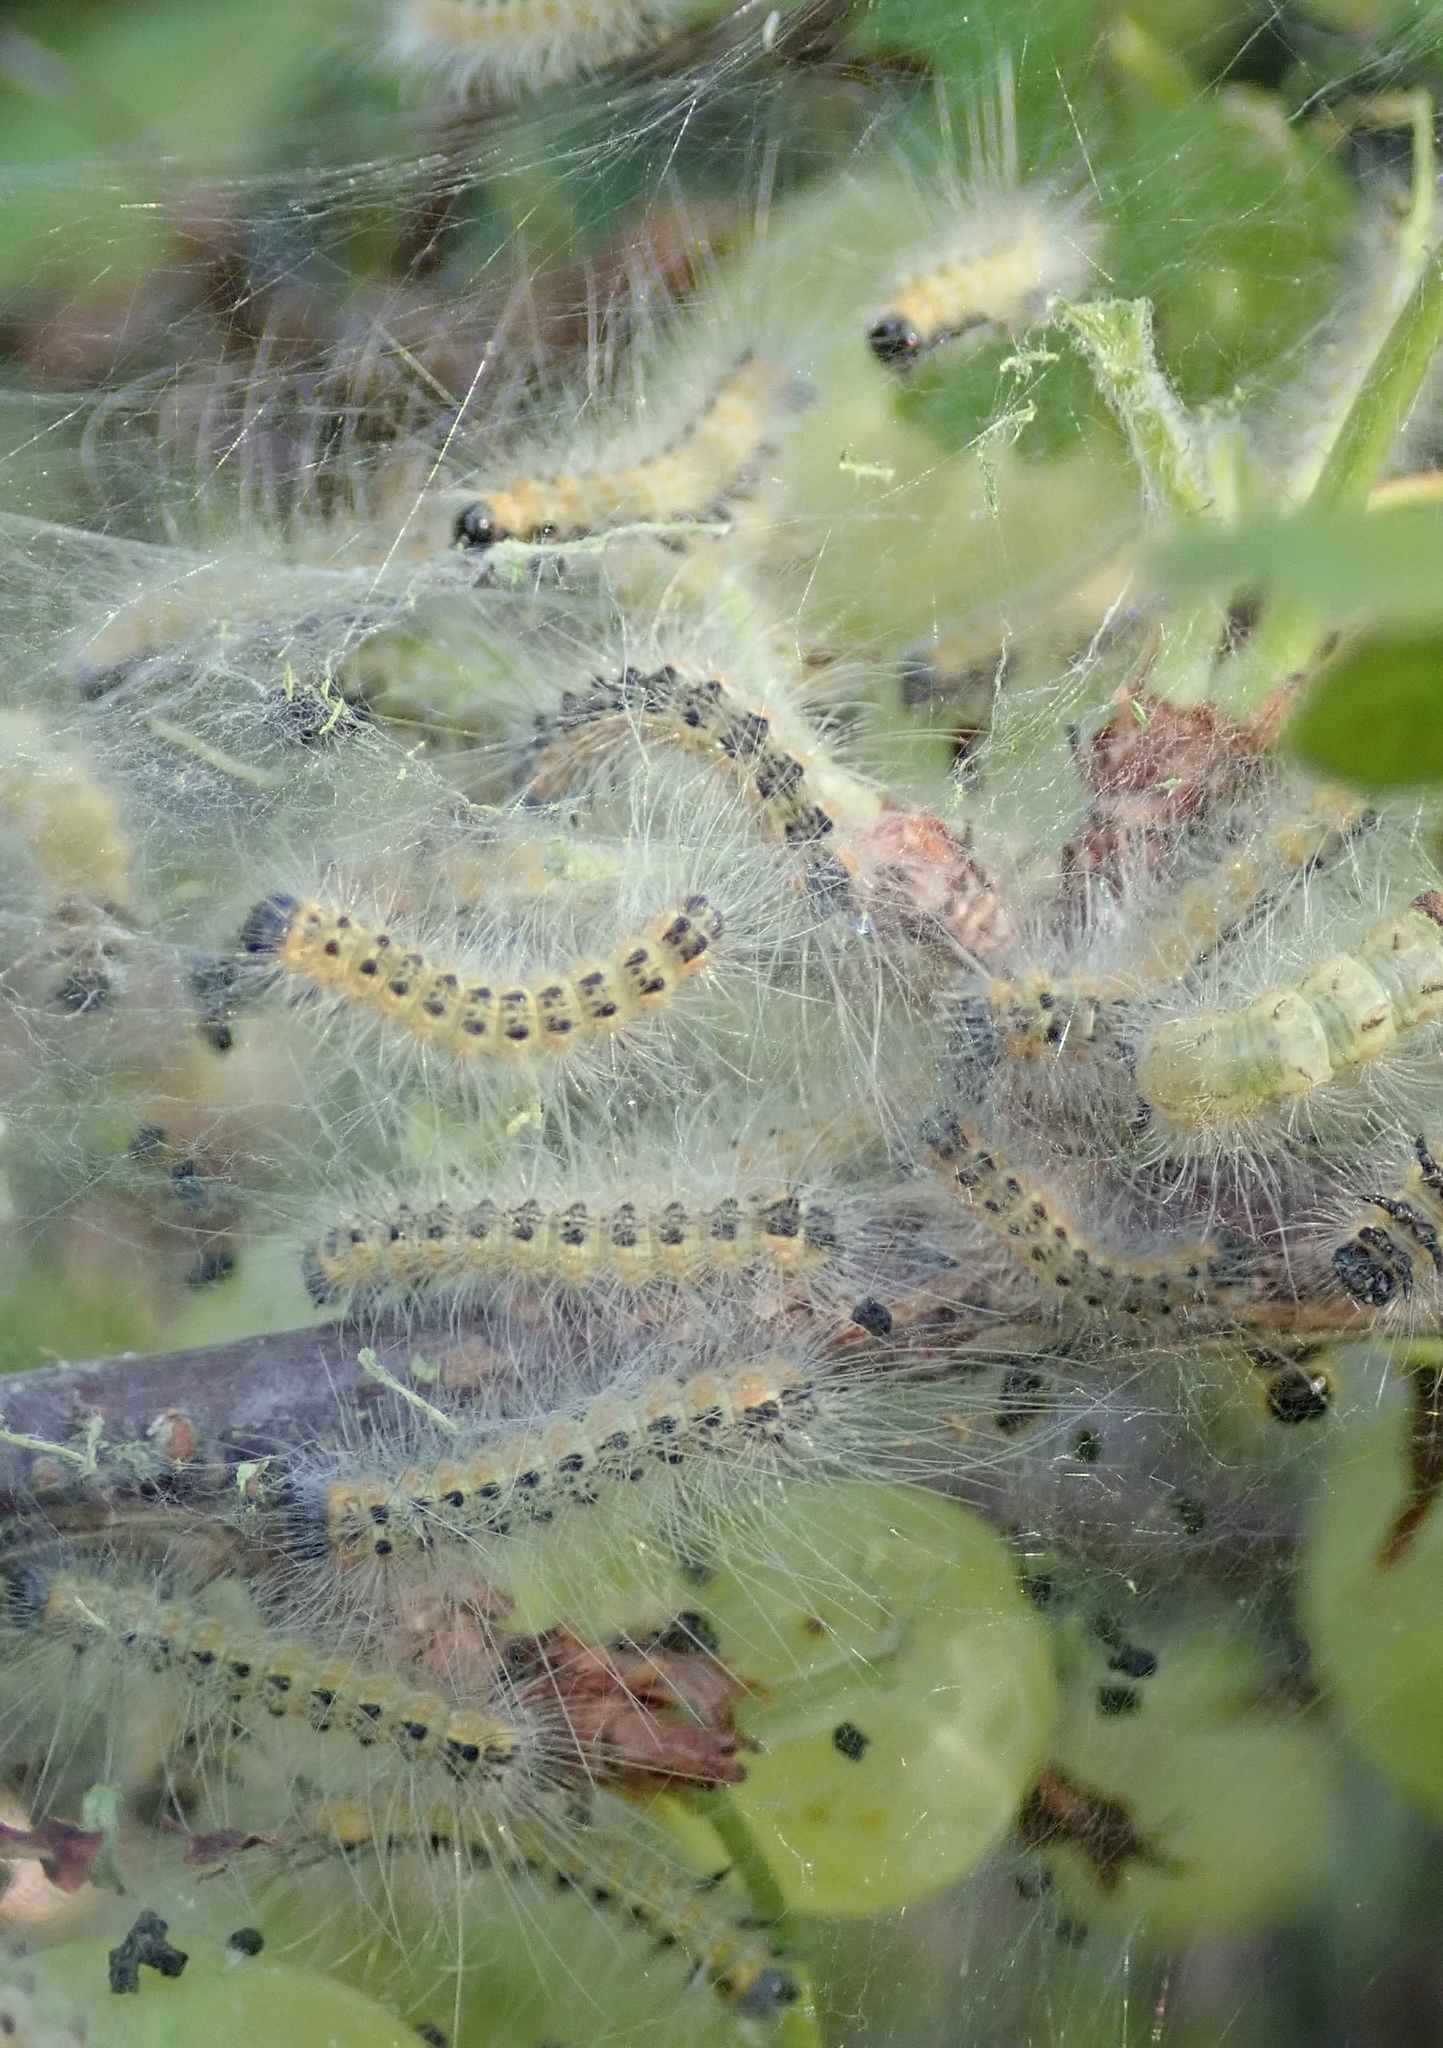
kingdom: Animalia
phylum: Arthropoda
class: Insecta
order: Lepidoptera
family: Erebidae
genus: Hyphantria
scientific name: Hyphantria cunea
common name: American white moth
